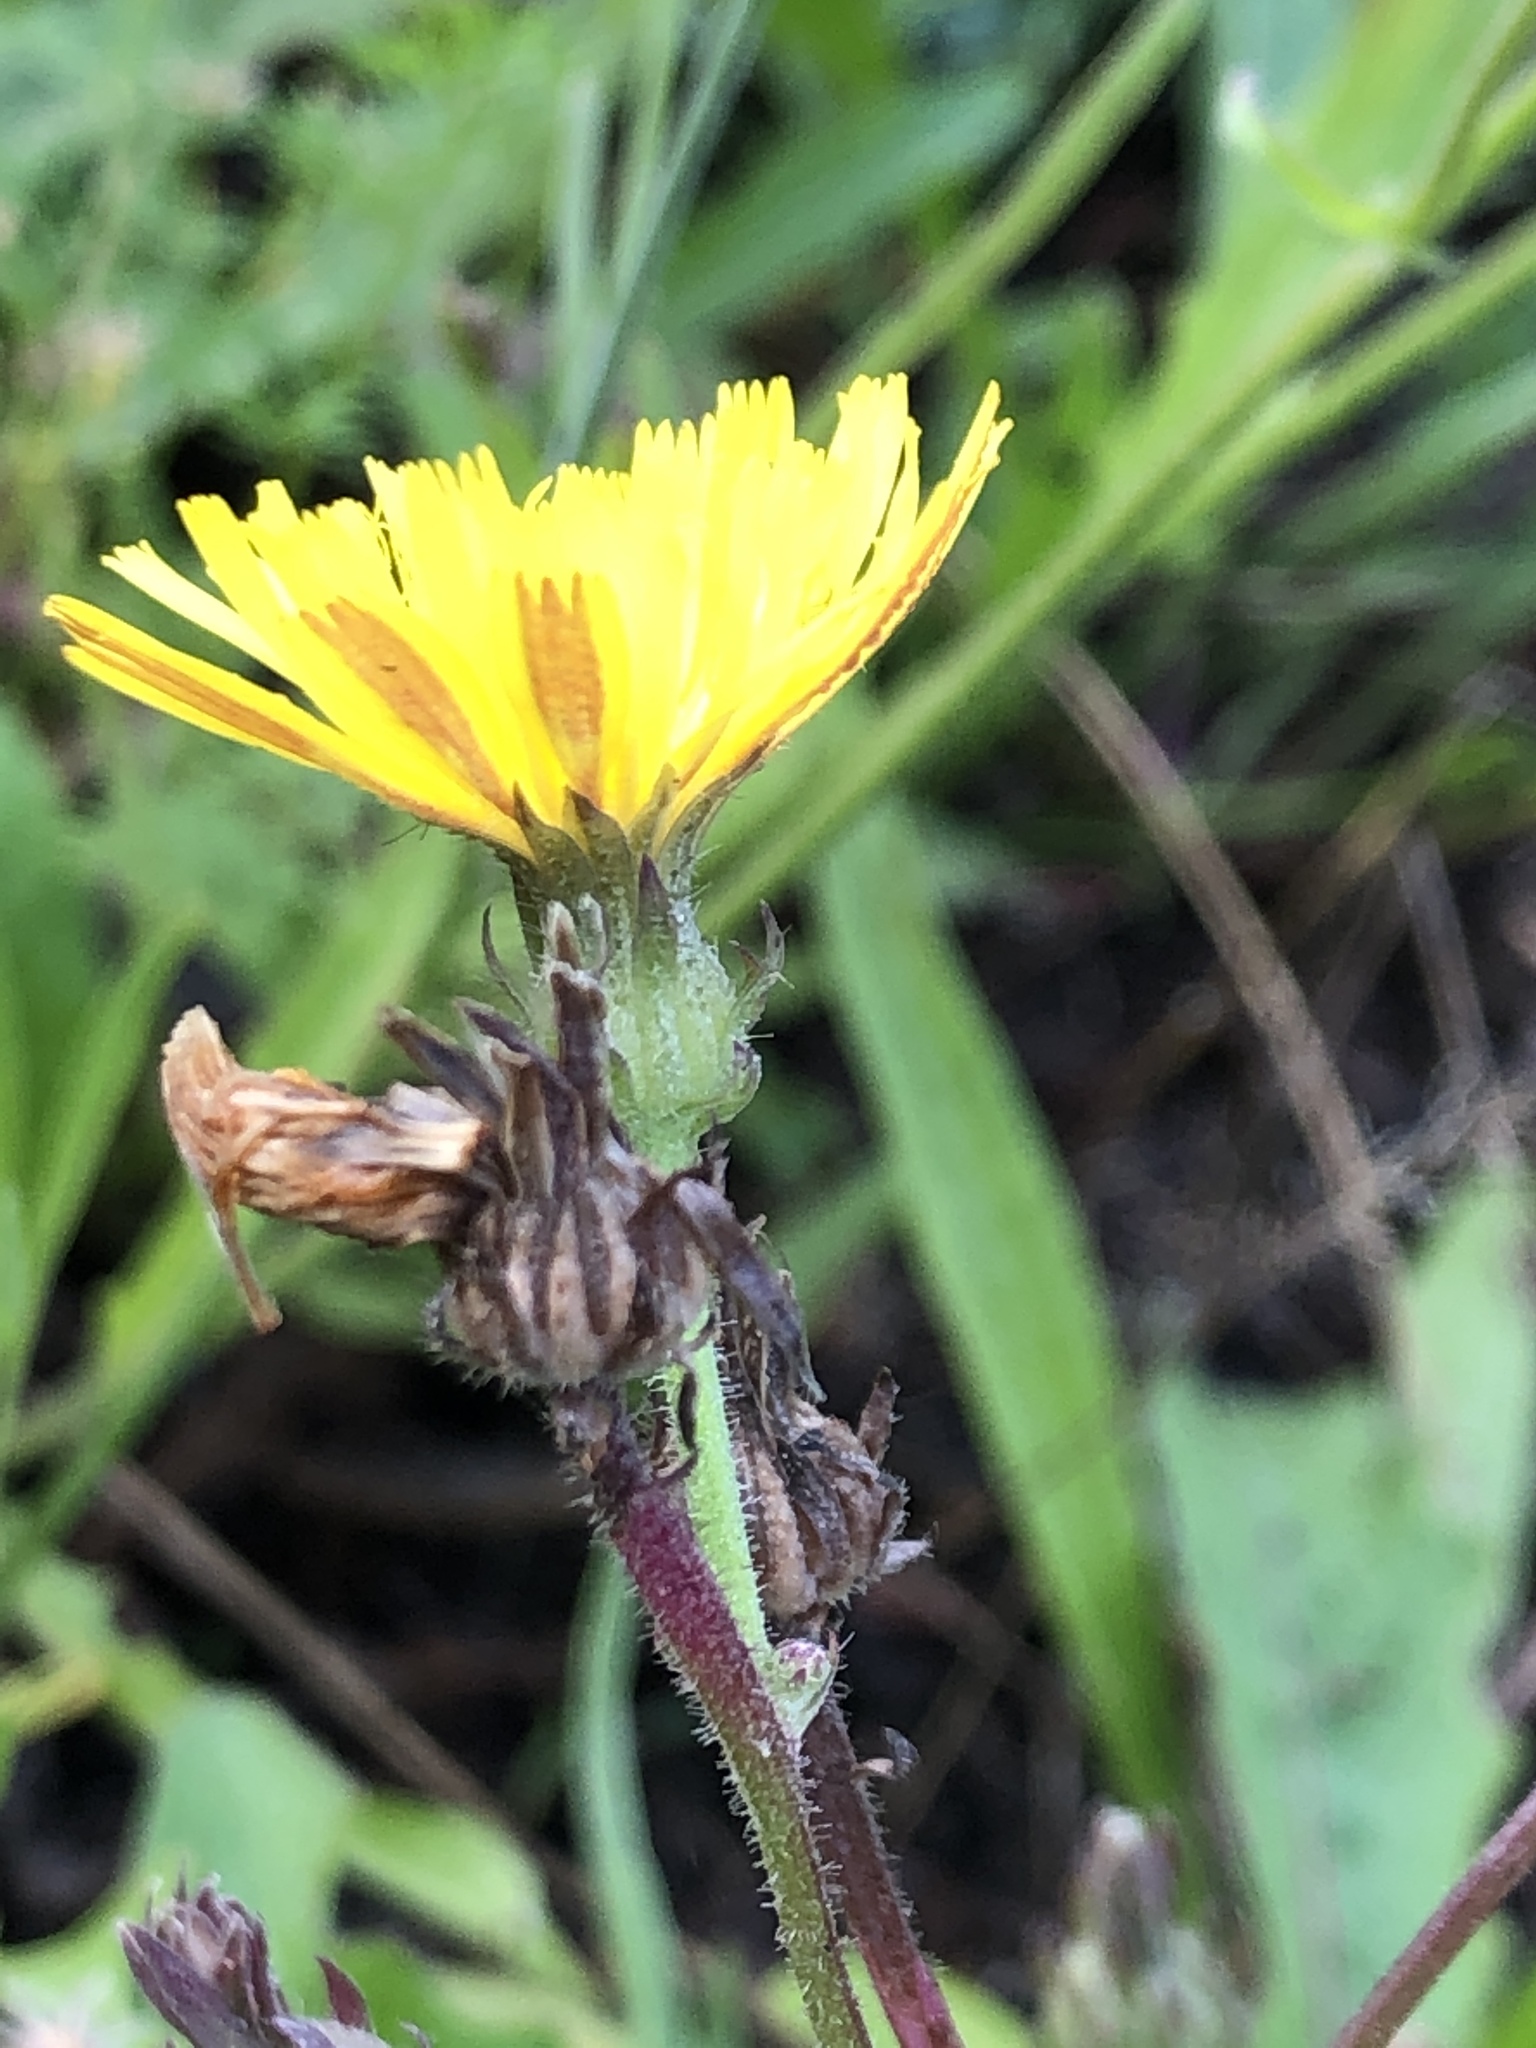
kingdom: Plantae
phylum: Tracheophyta
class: Magnoliopsida
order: Asterales
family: Asteraceae
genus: Picris
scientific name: Picris hieracioides
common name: Hawkweed oxtongue
